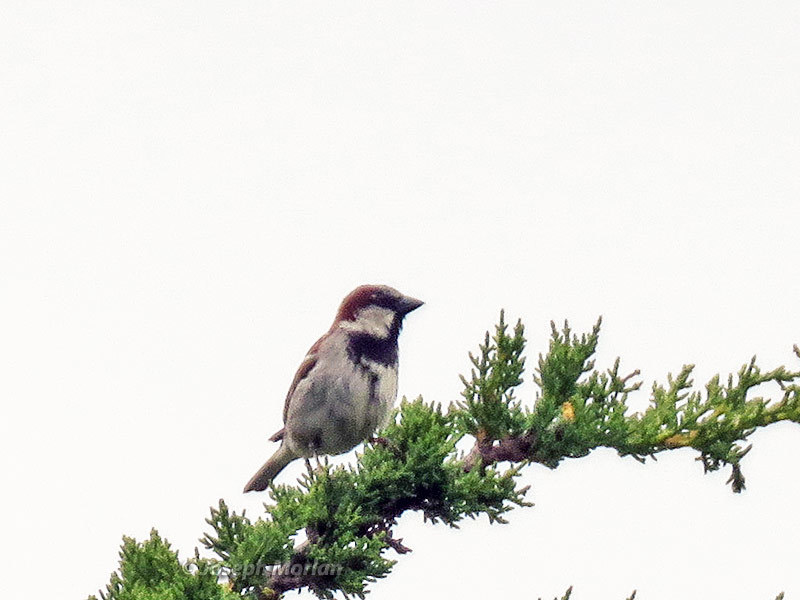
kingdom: Animalia
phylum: Chordata
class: Aves
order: Passeriformes
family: Passeridae
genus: Passer
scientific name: Passer domesticus
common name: House sparrow
